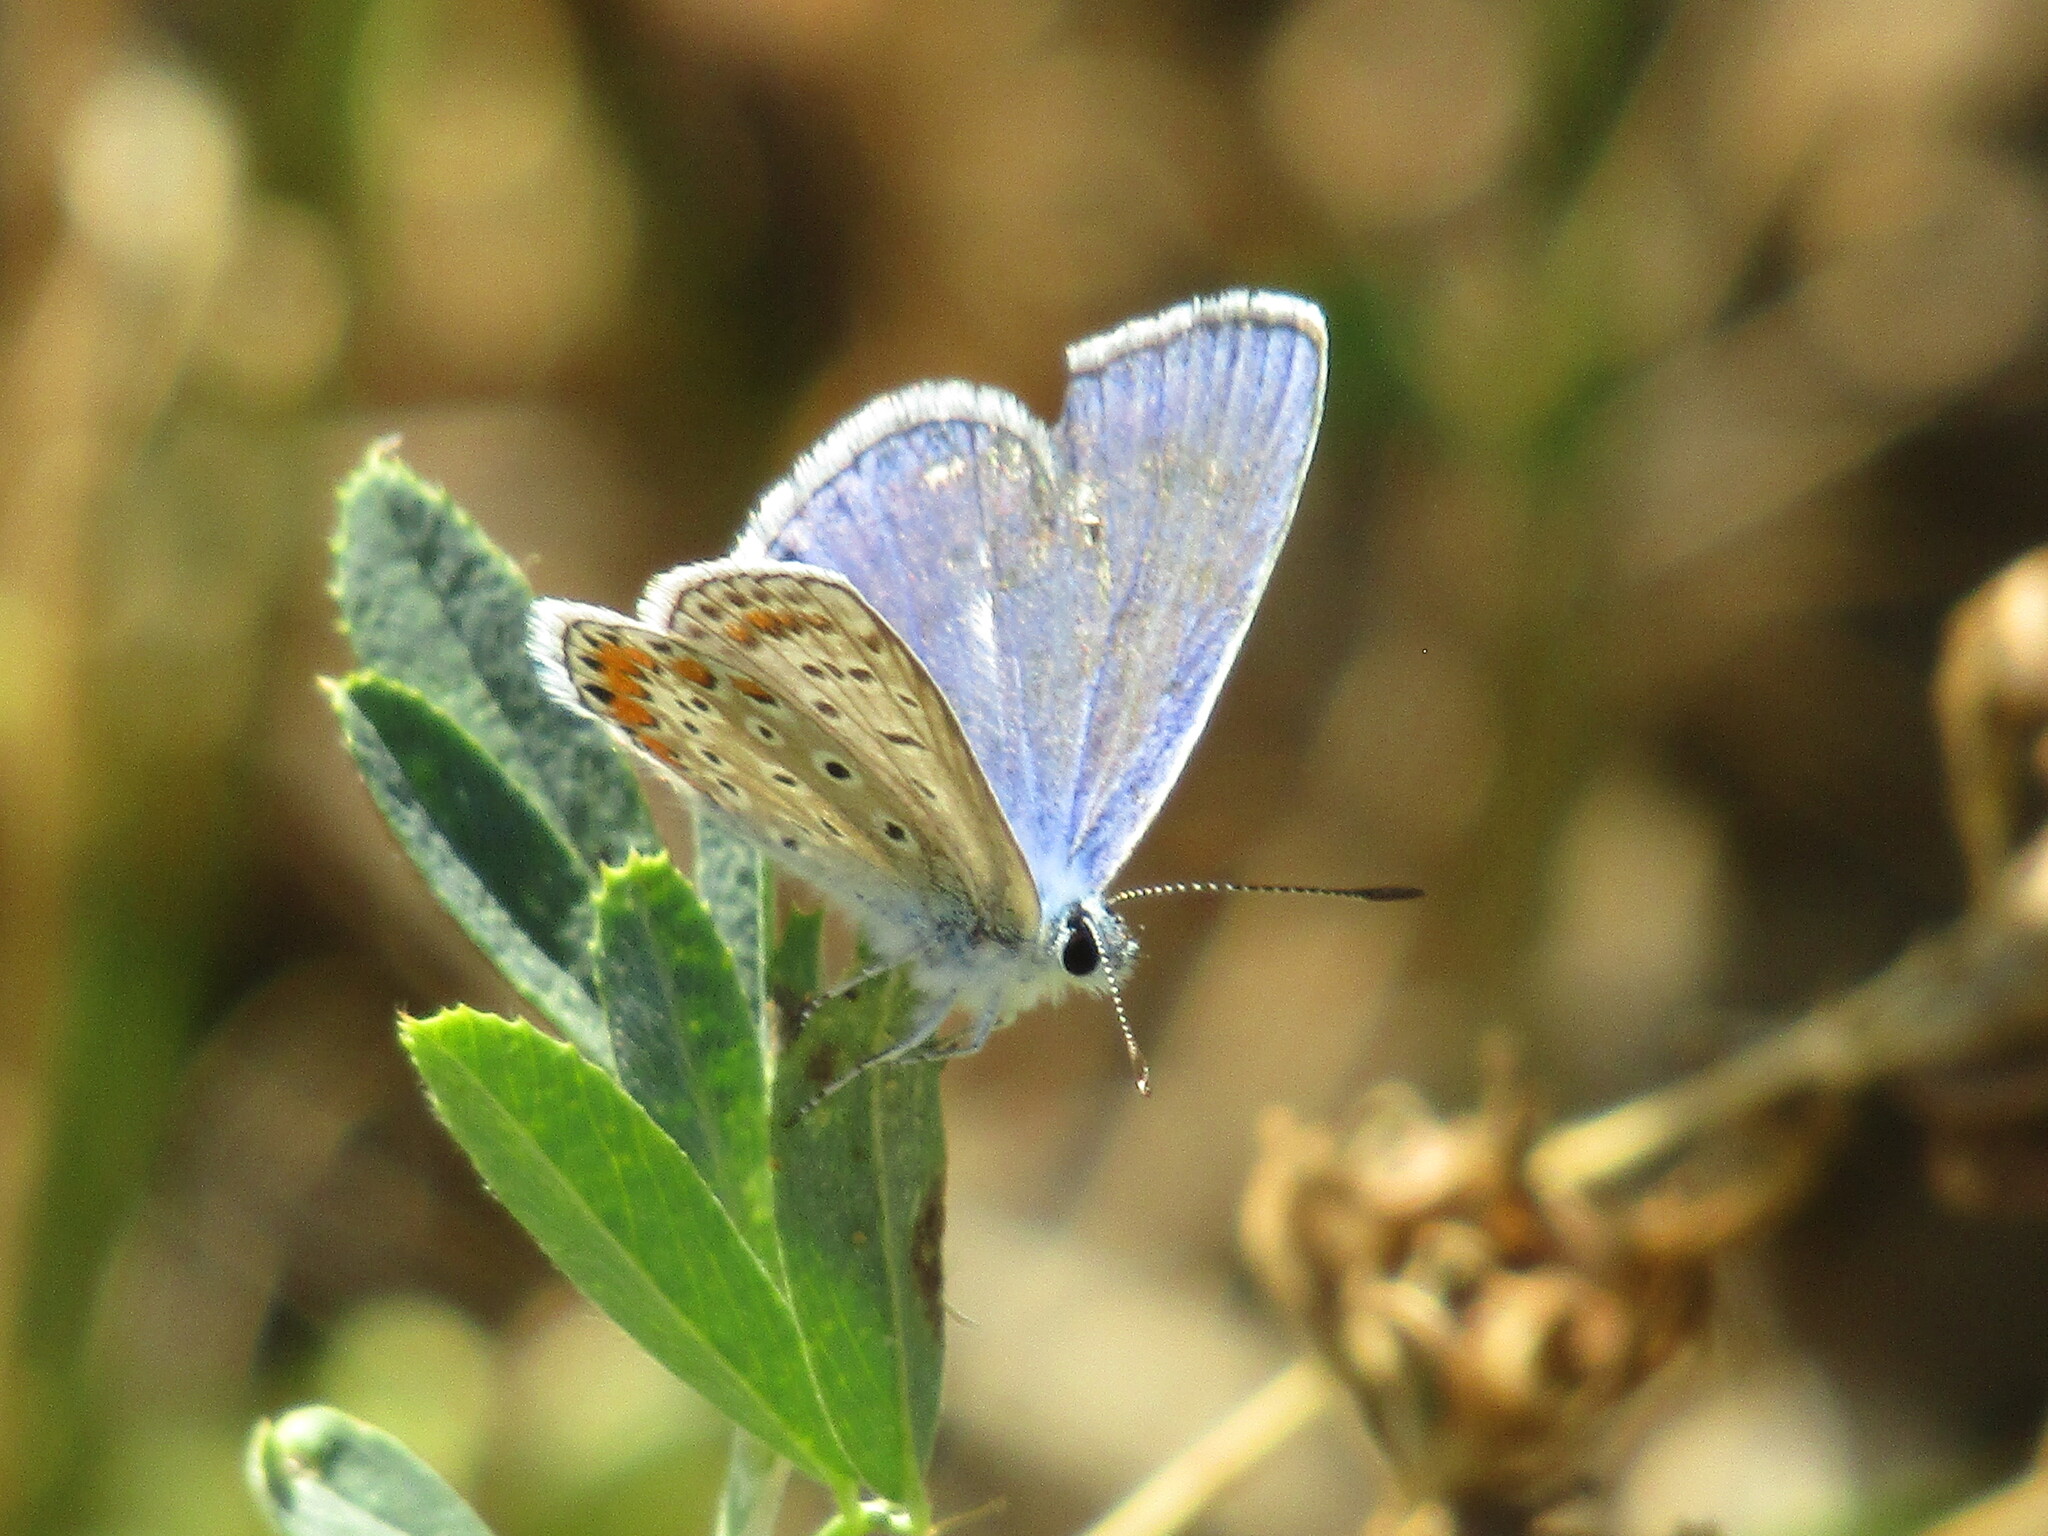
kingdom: Animalia
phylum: Arthropoda
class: Insecta
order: Lepidoptera
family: Lycaenidae
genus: Polyommatus
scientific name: Polyommatus icarus
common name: Common blue
